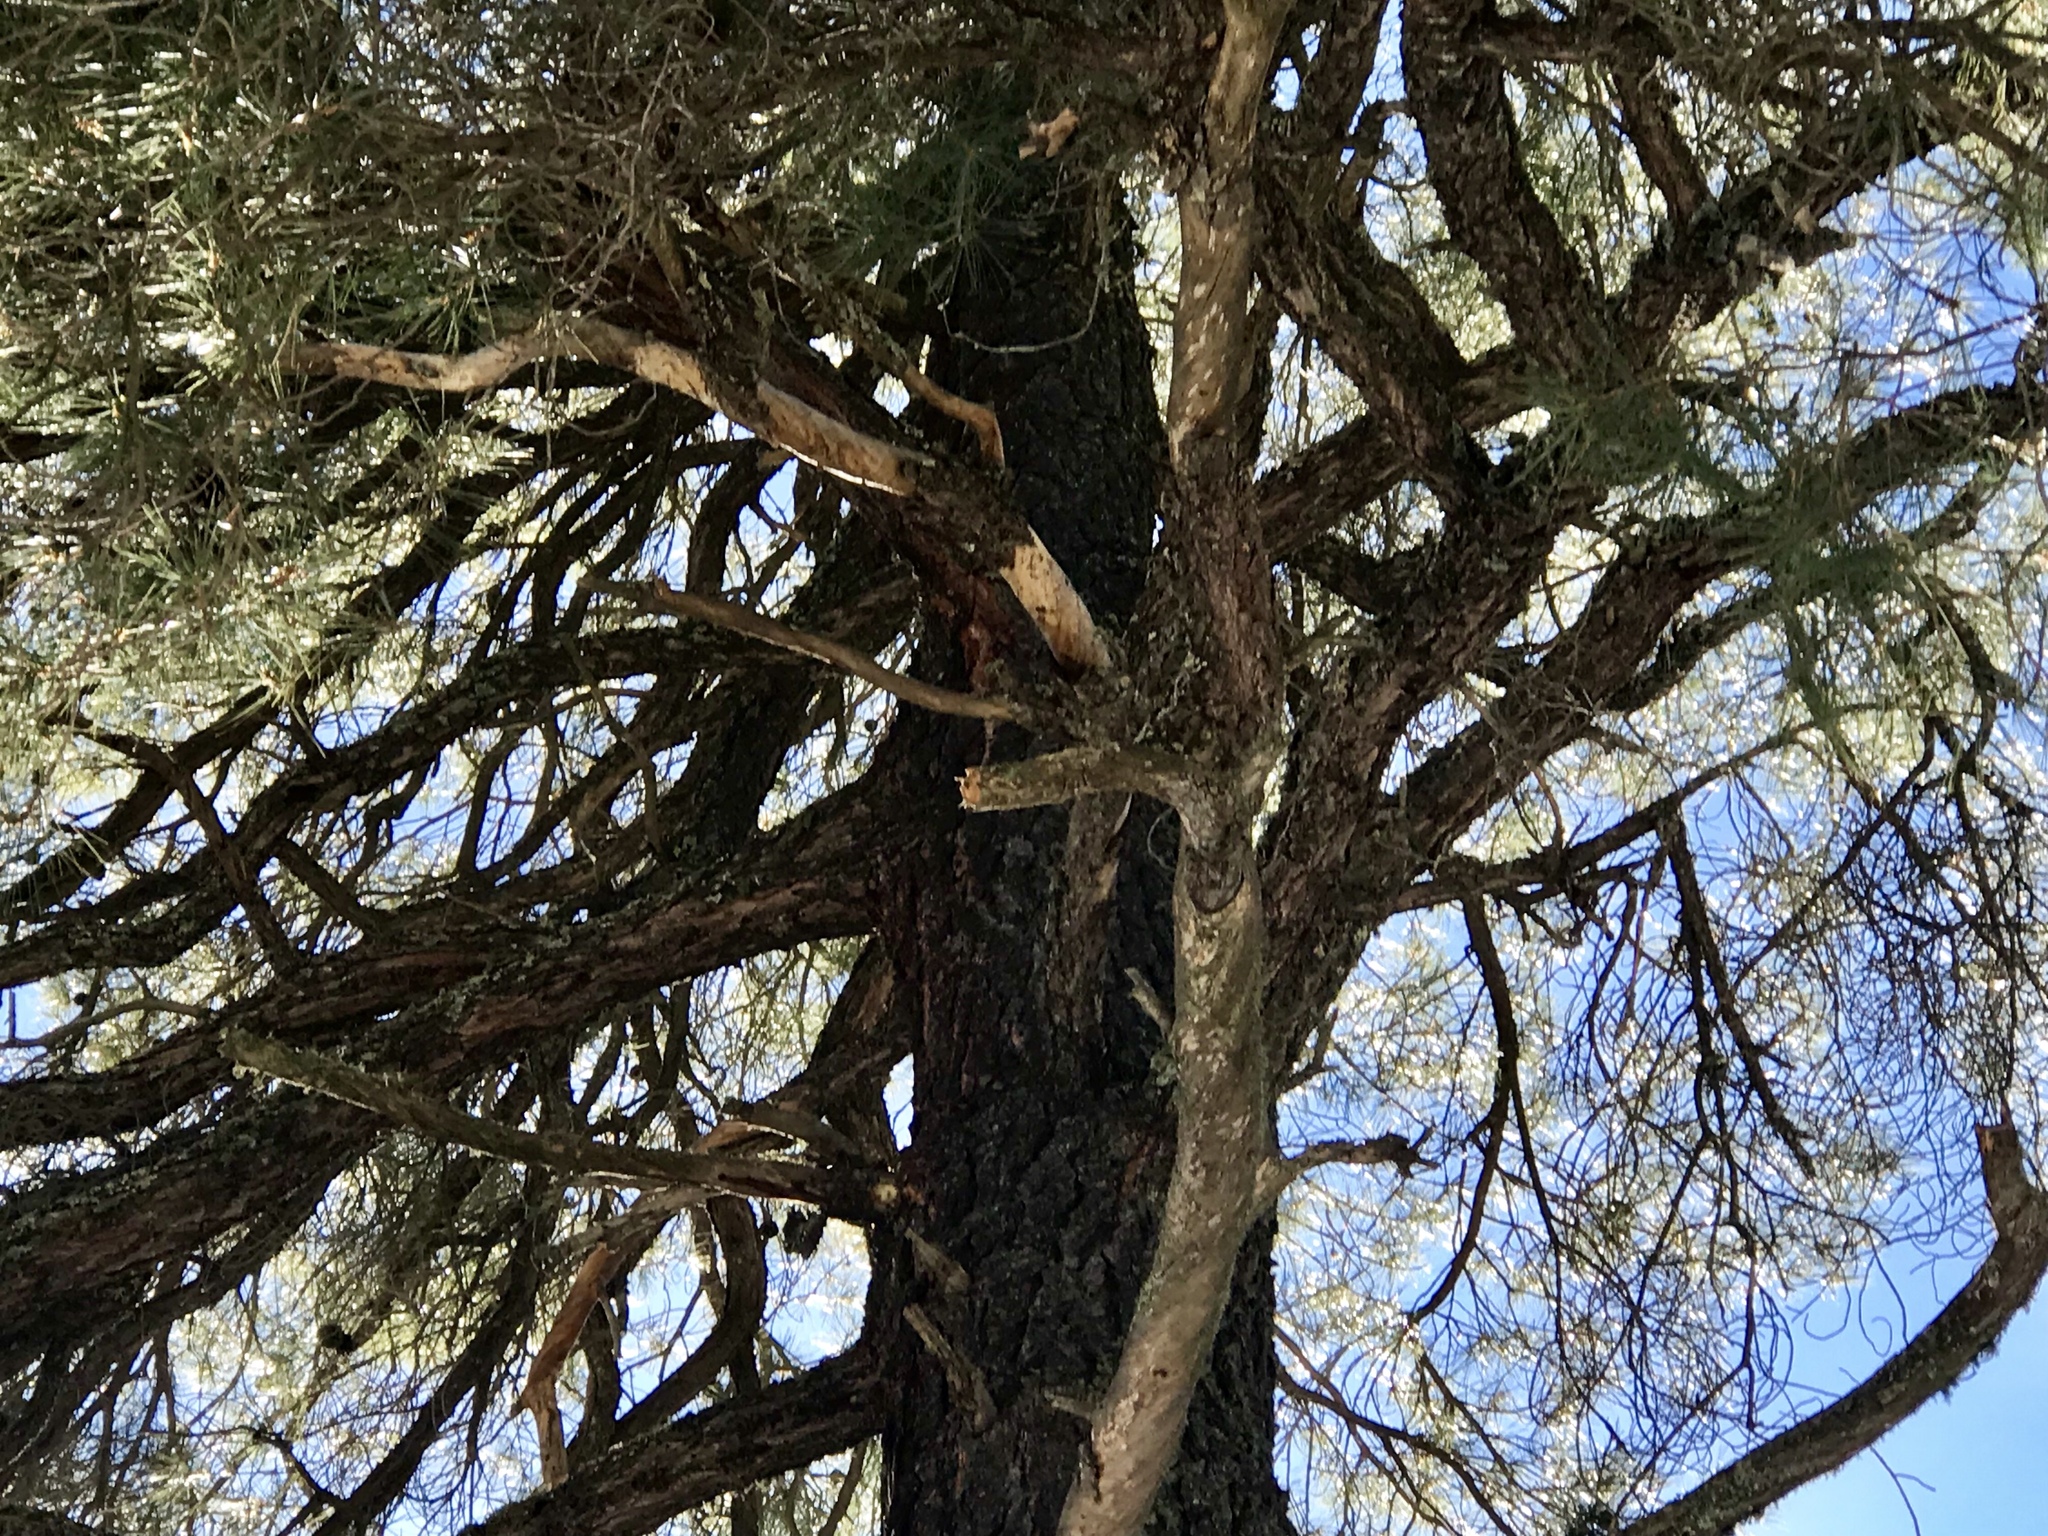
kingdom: Plantae
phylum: Tracheophyta
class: Pinopsida
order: Pinales
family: Pinaceae
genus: Pinus
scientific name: Pinus leiophylla
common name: Chihuahua pine
